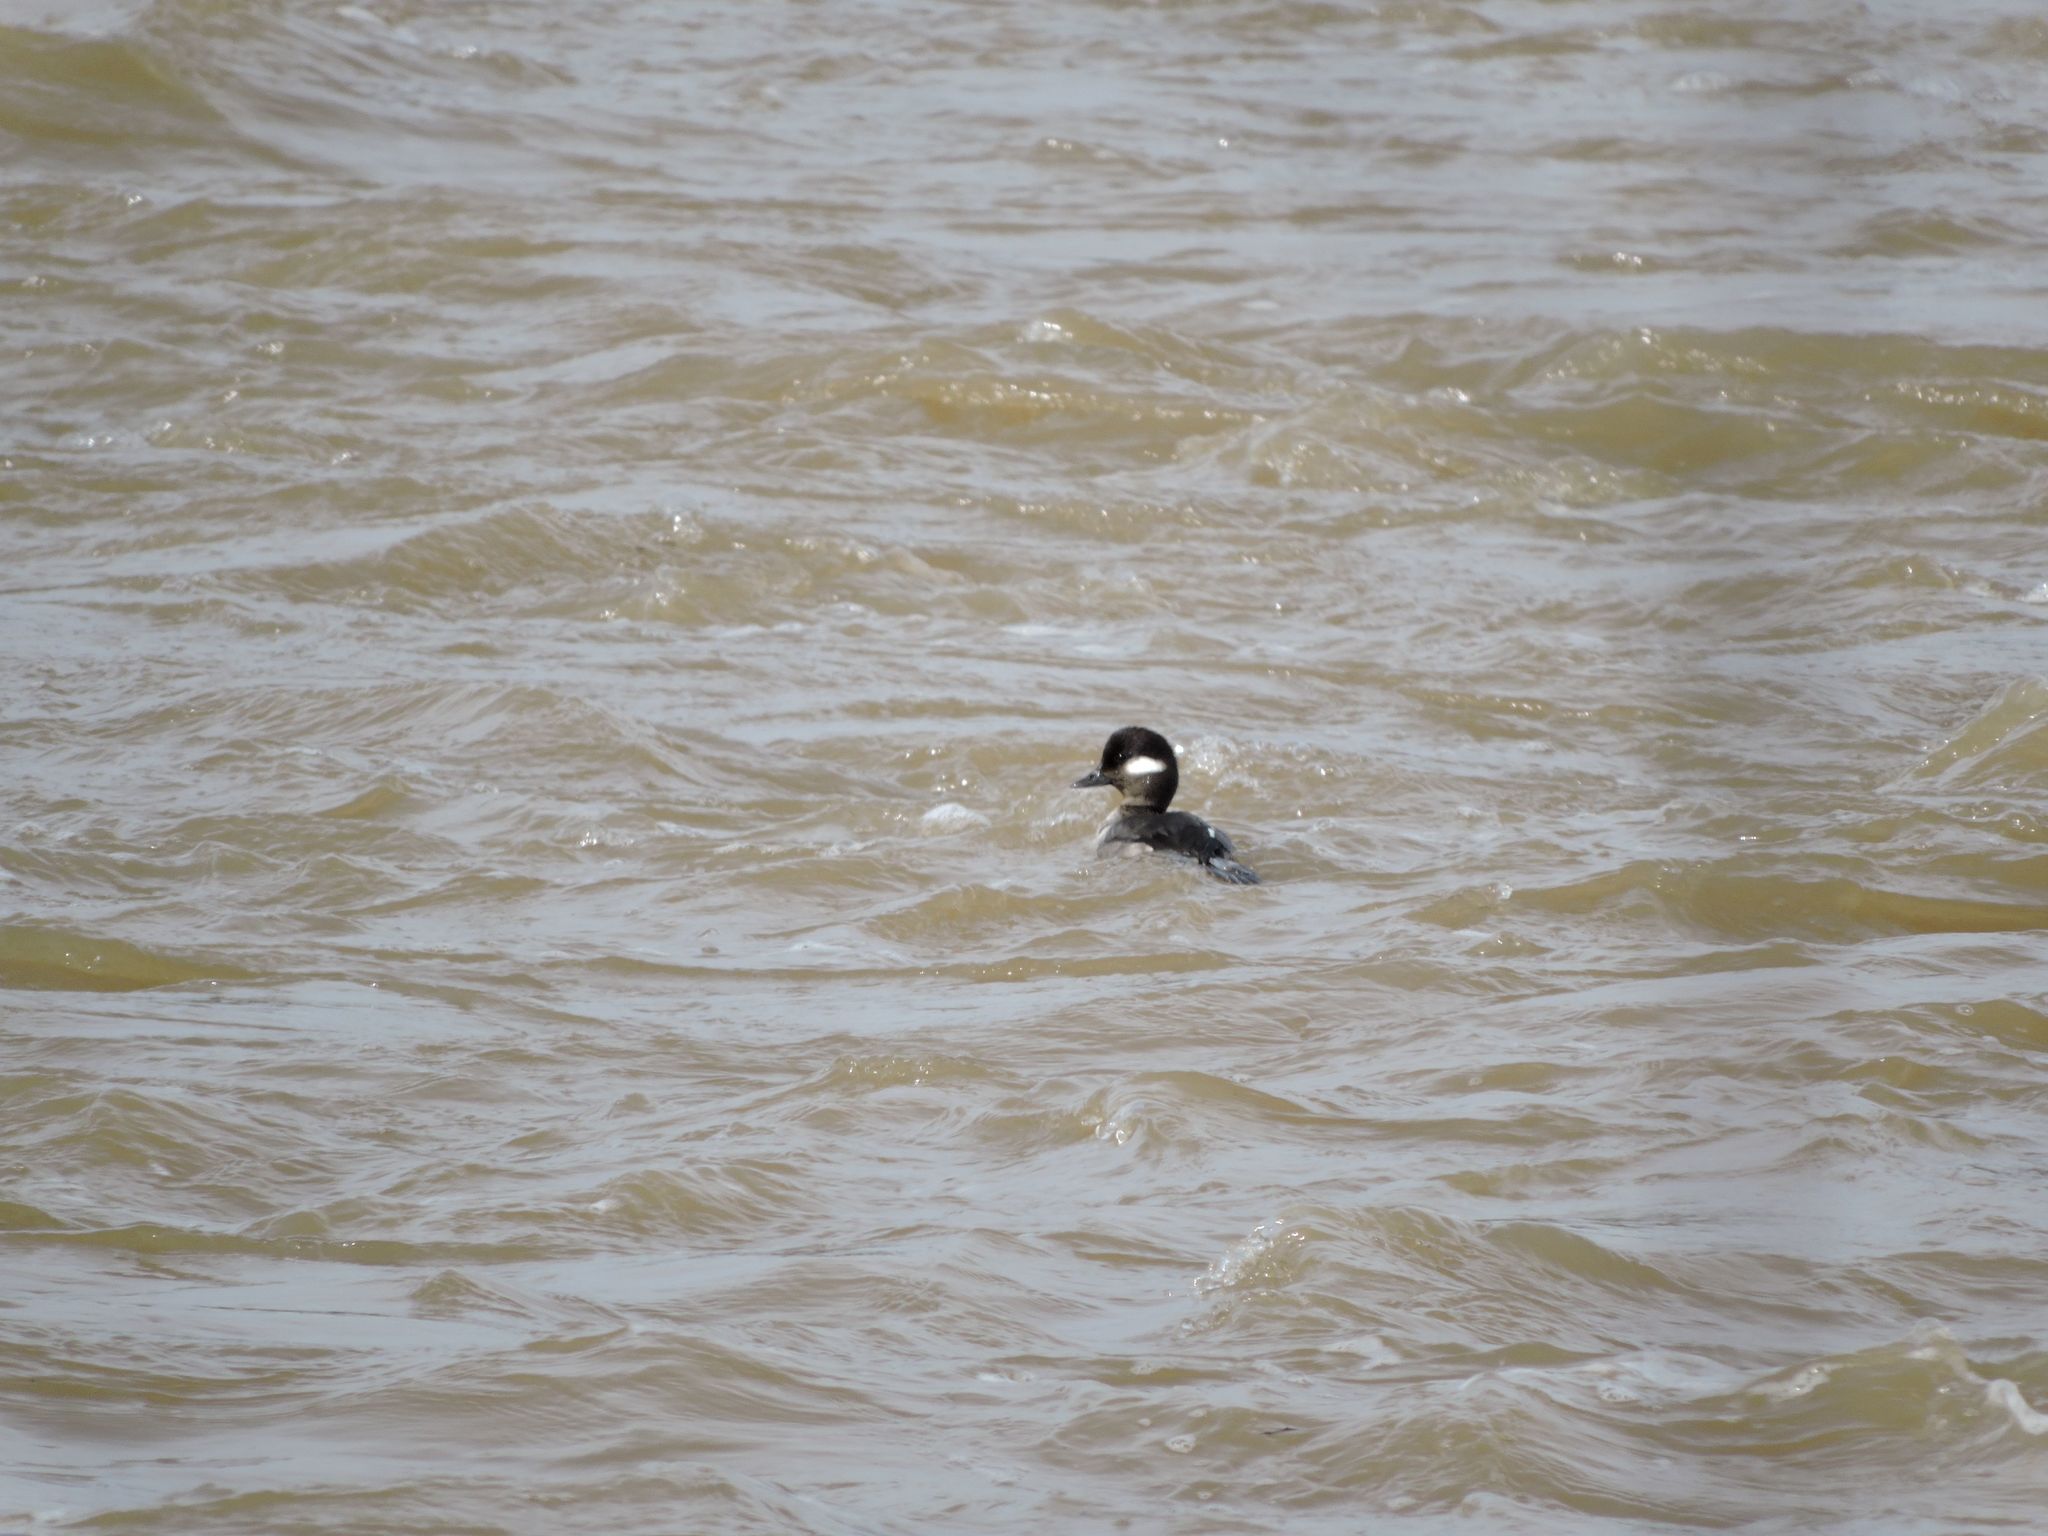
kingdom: Animalia
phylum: Chordata
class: Aves
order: Anseriformes
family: Anatidae
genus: Bucephala
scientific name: Bucephala albeola
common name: Bufflehead
